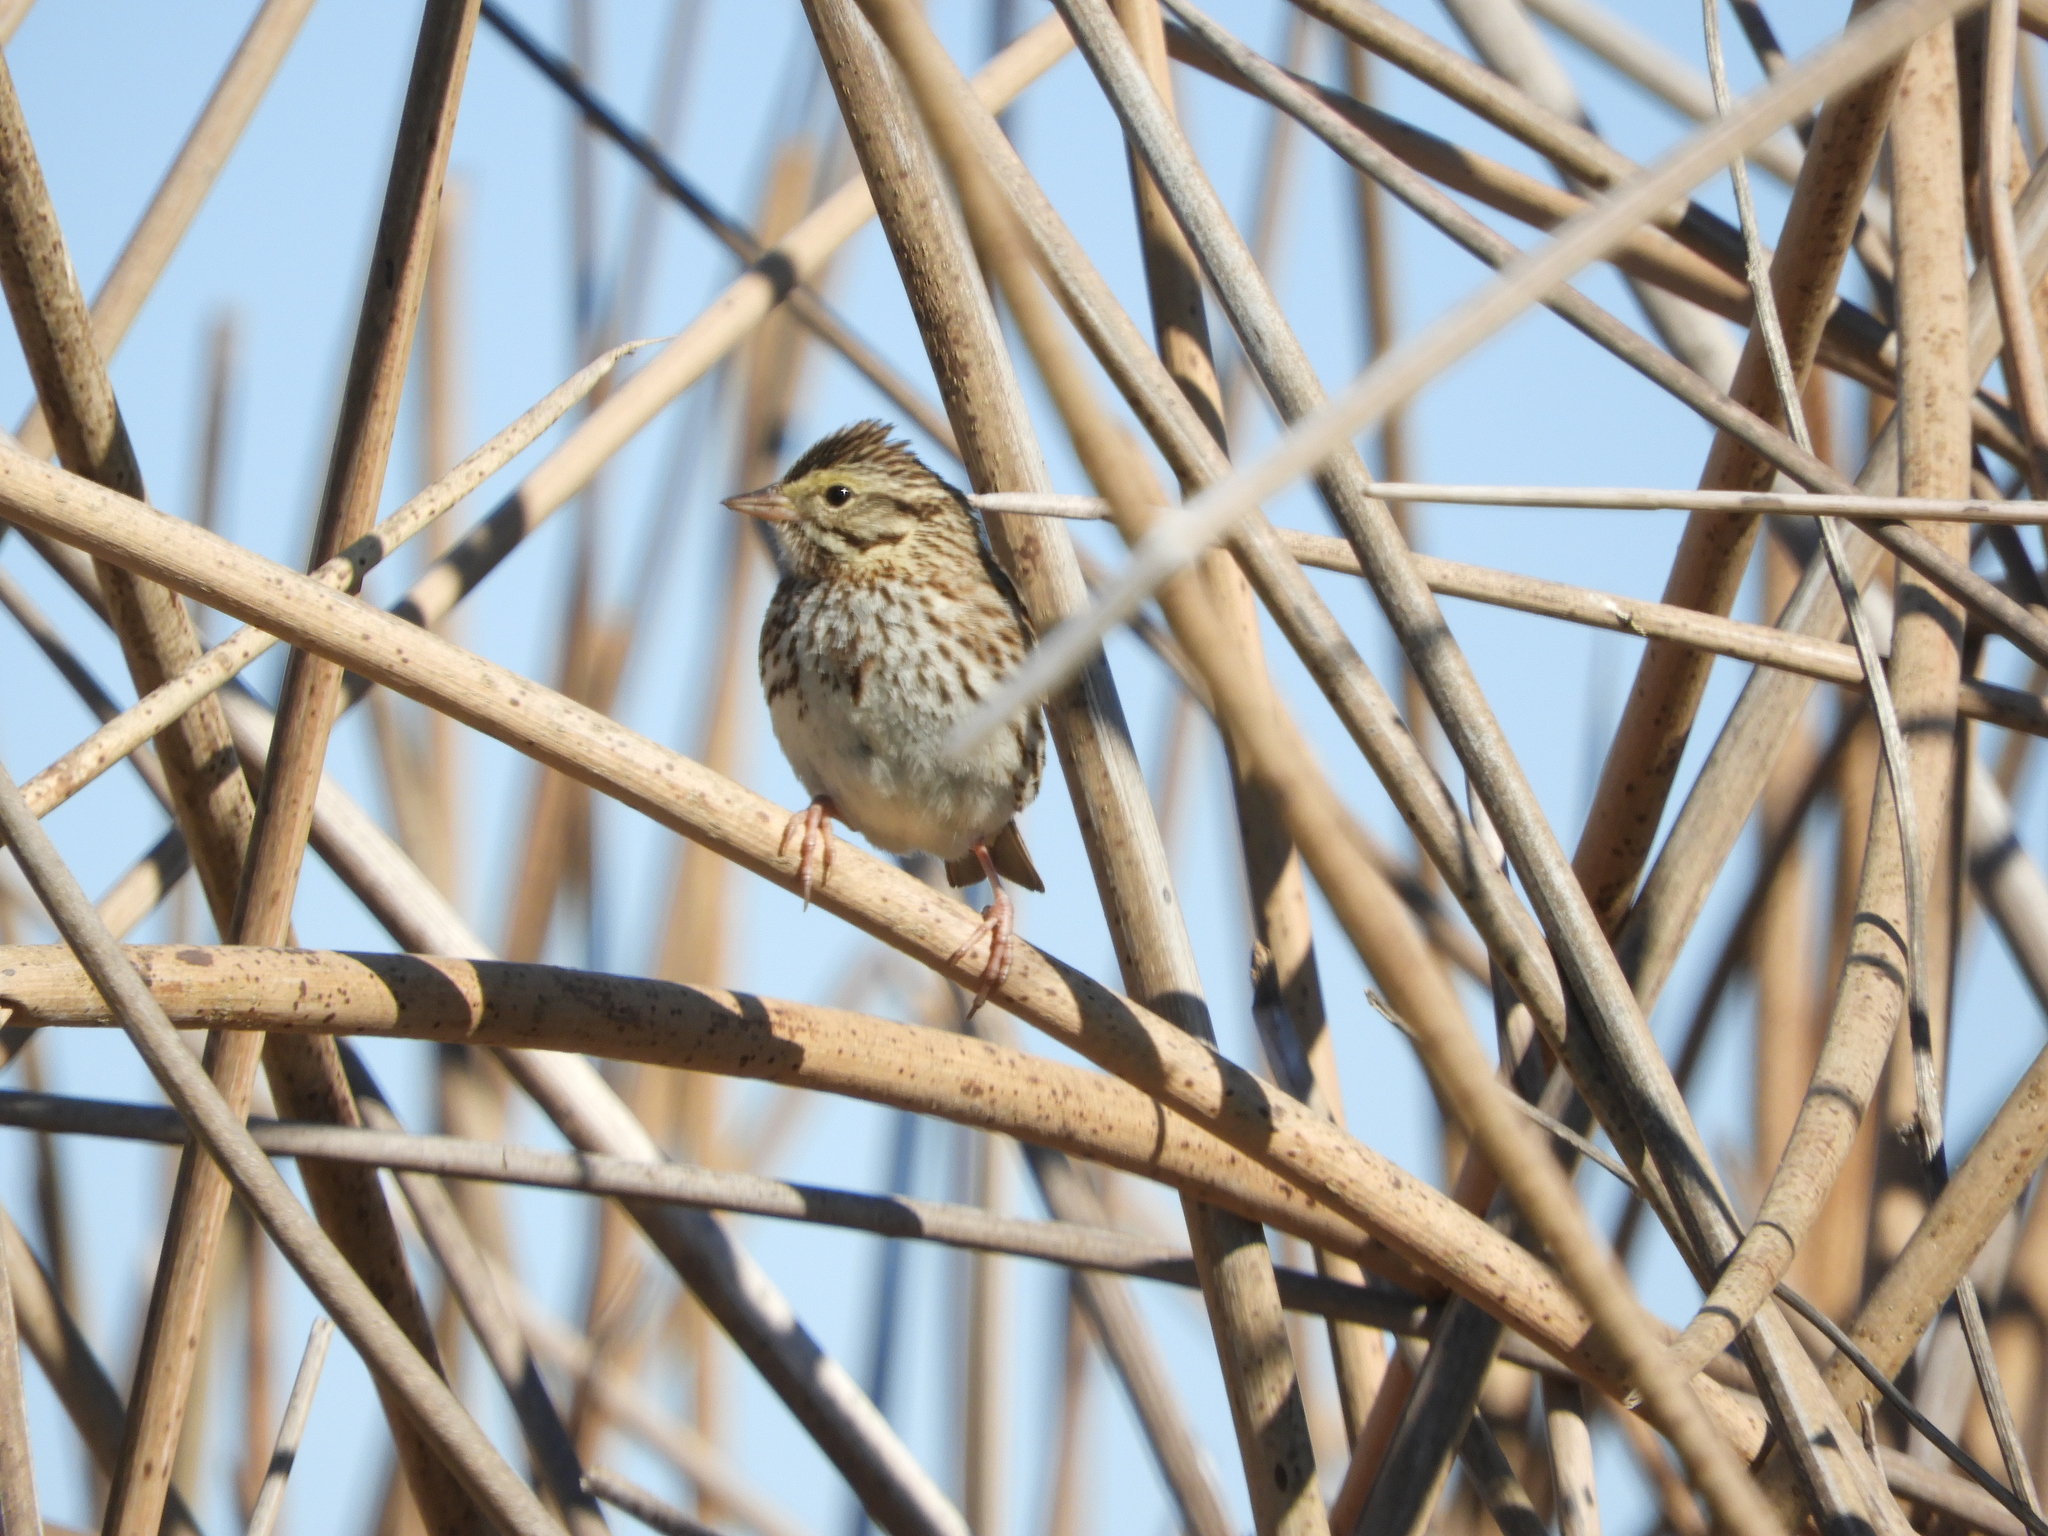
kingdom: Animalia
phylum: Chordata
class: Aves
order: Passeriformes
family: Passerellidae
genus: Passerculus
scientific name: Passerculus sandwichensis
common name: Savannah sparrow
